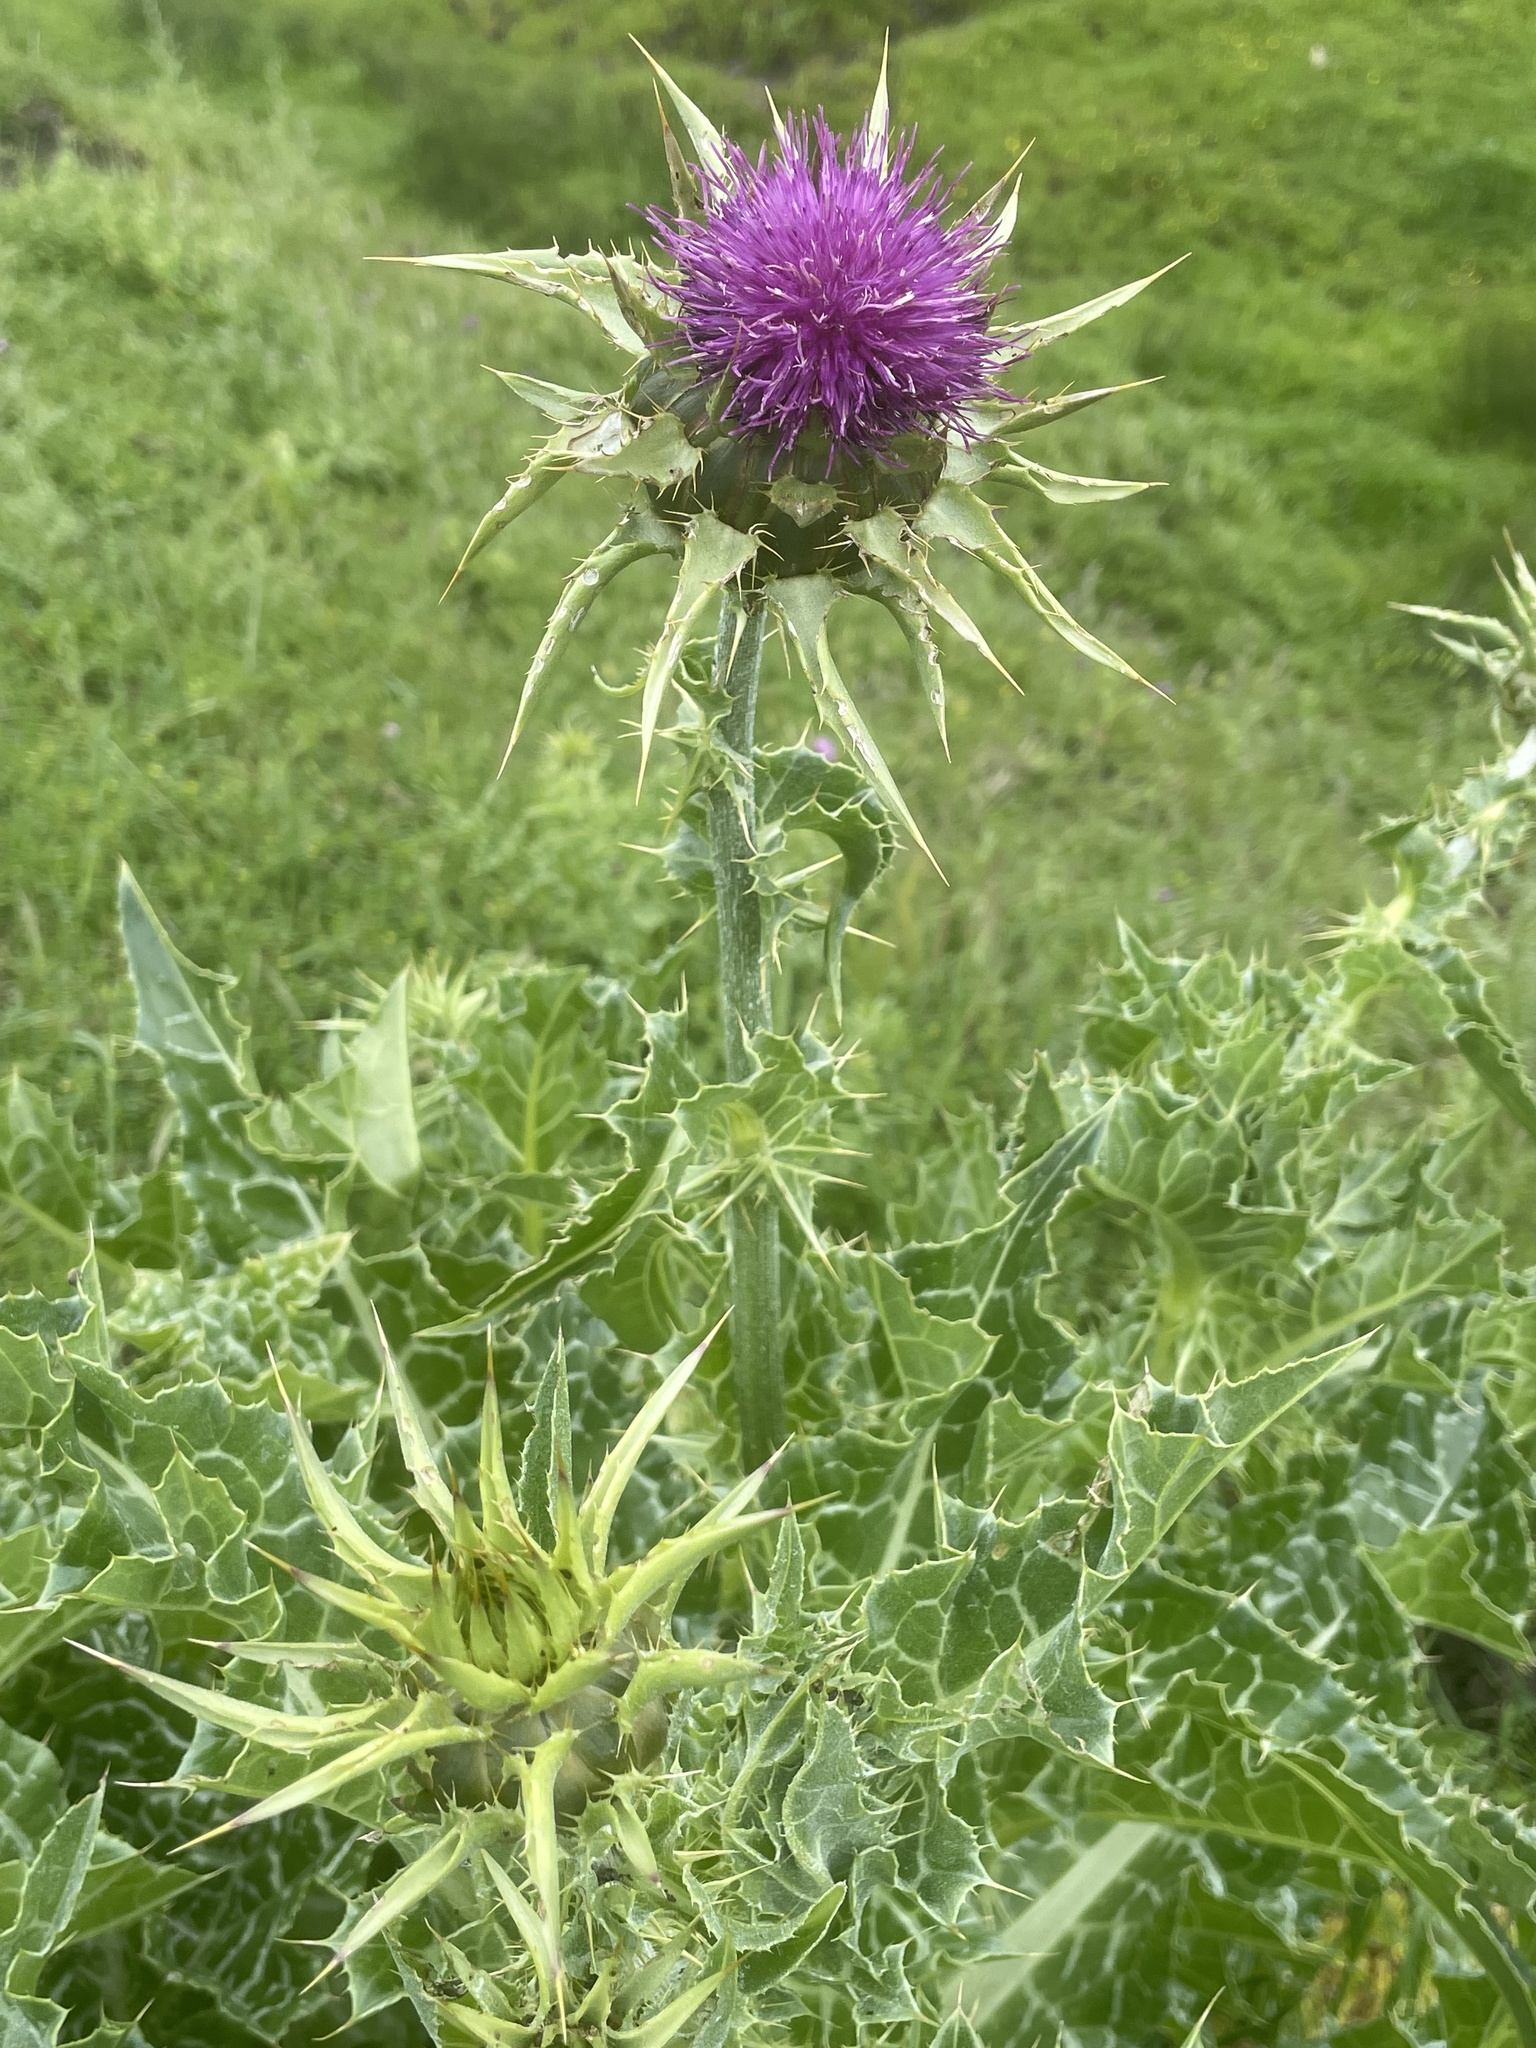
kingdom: Plantae
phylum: Tracheophyta
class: Magnoliopsida
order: Asterales
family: Asteraceae
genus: Silybum
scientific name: Silybum marianum
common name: Milk thistle
